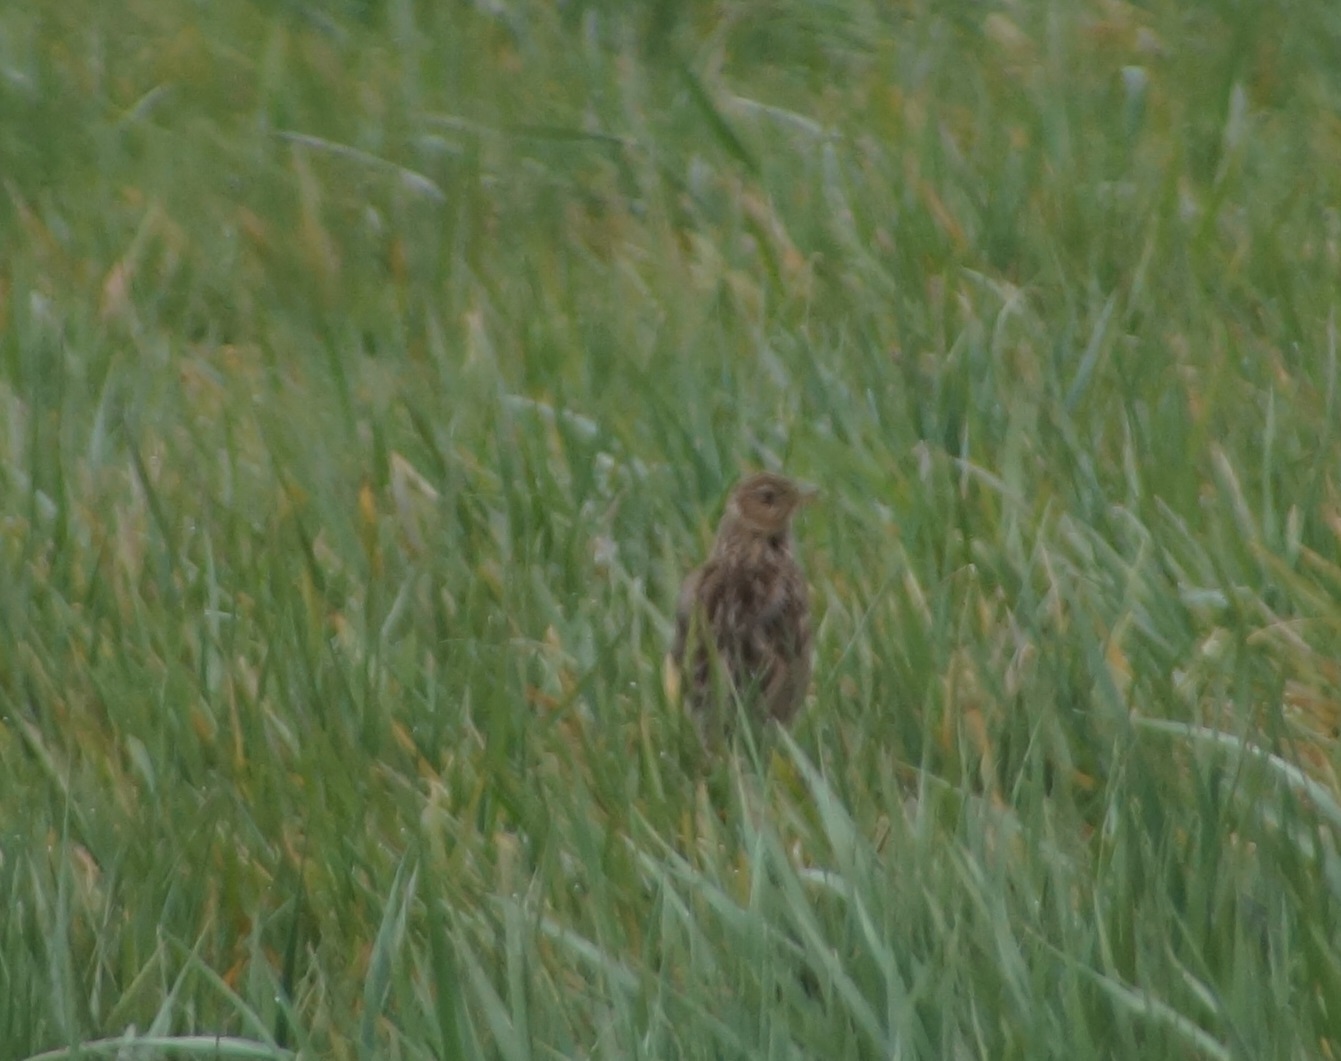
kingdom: Animalia
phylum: Chordata
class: Aves
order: Passeriformes
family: Alaudidae
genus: Alauda
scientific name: Alauda arvensis
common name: Eurasian skylark
